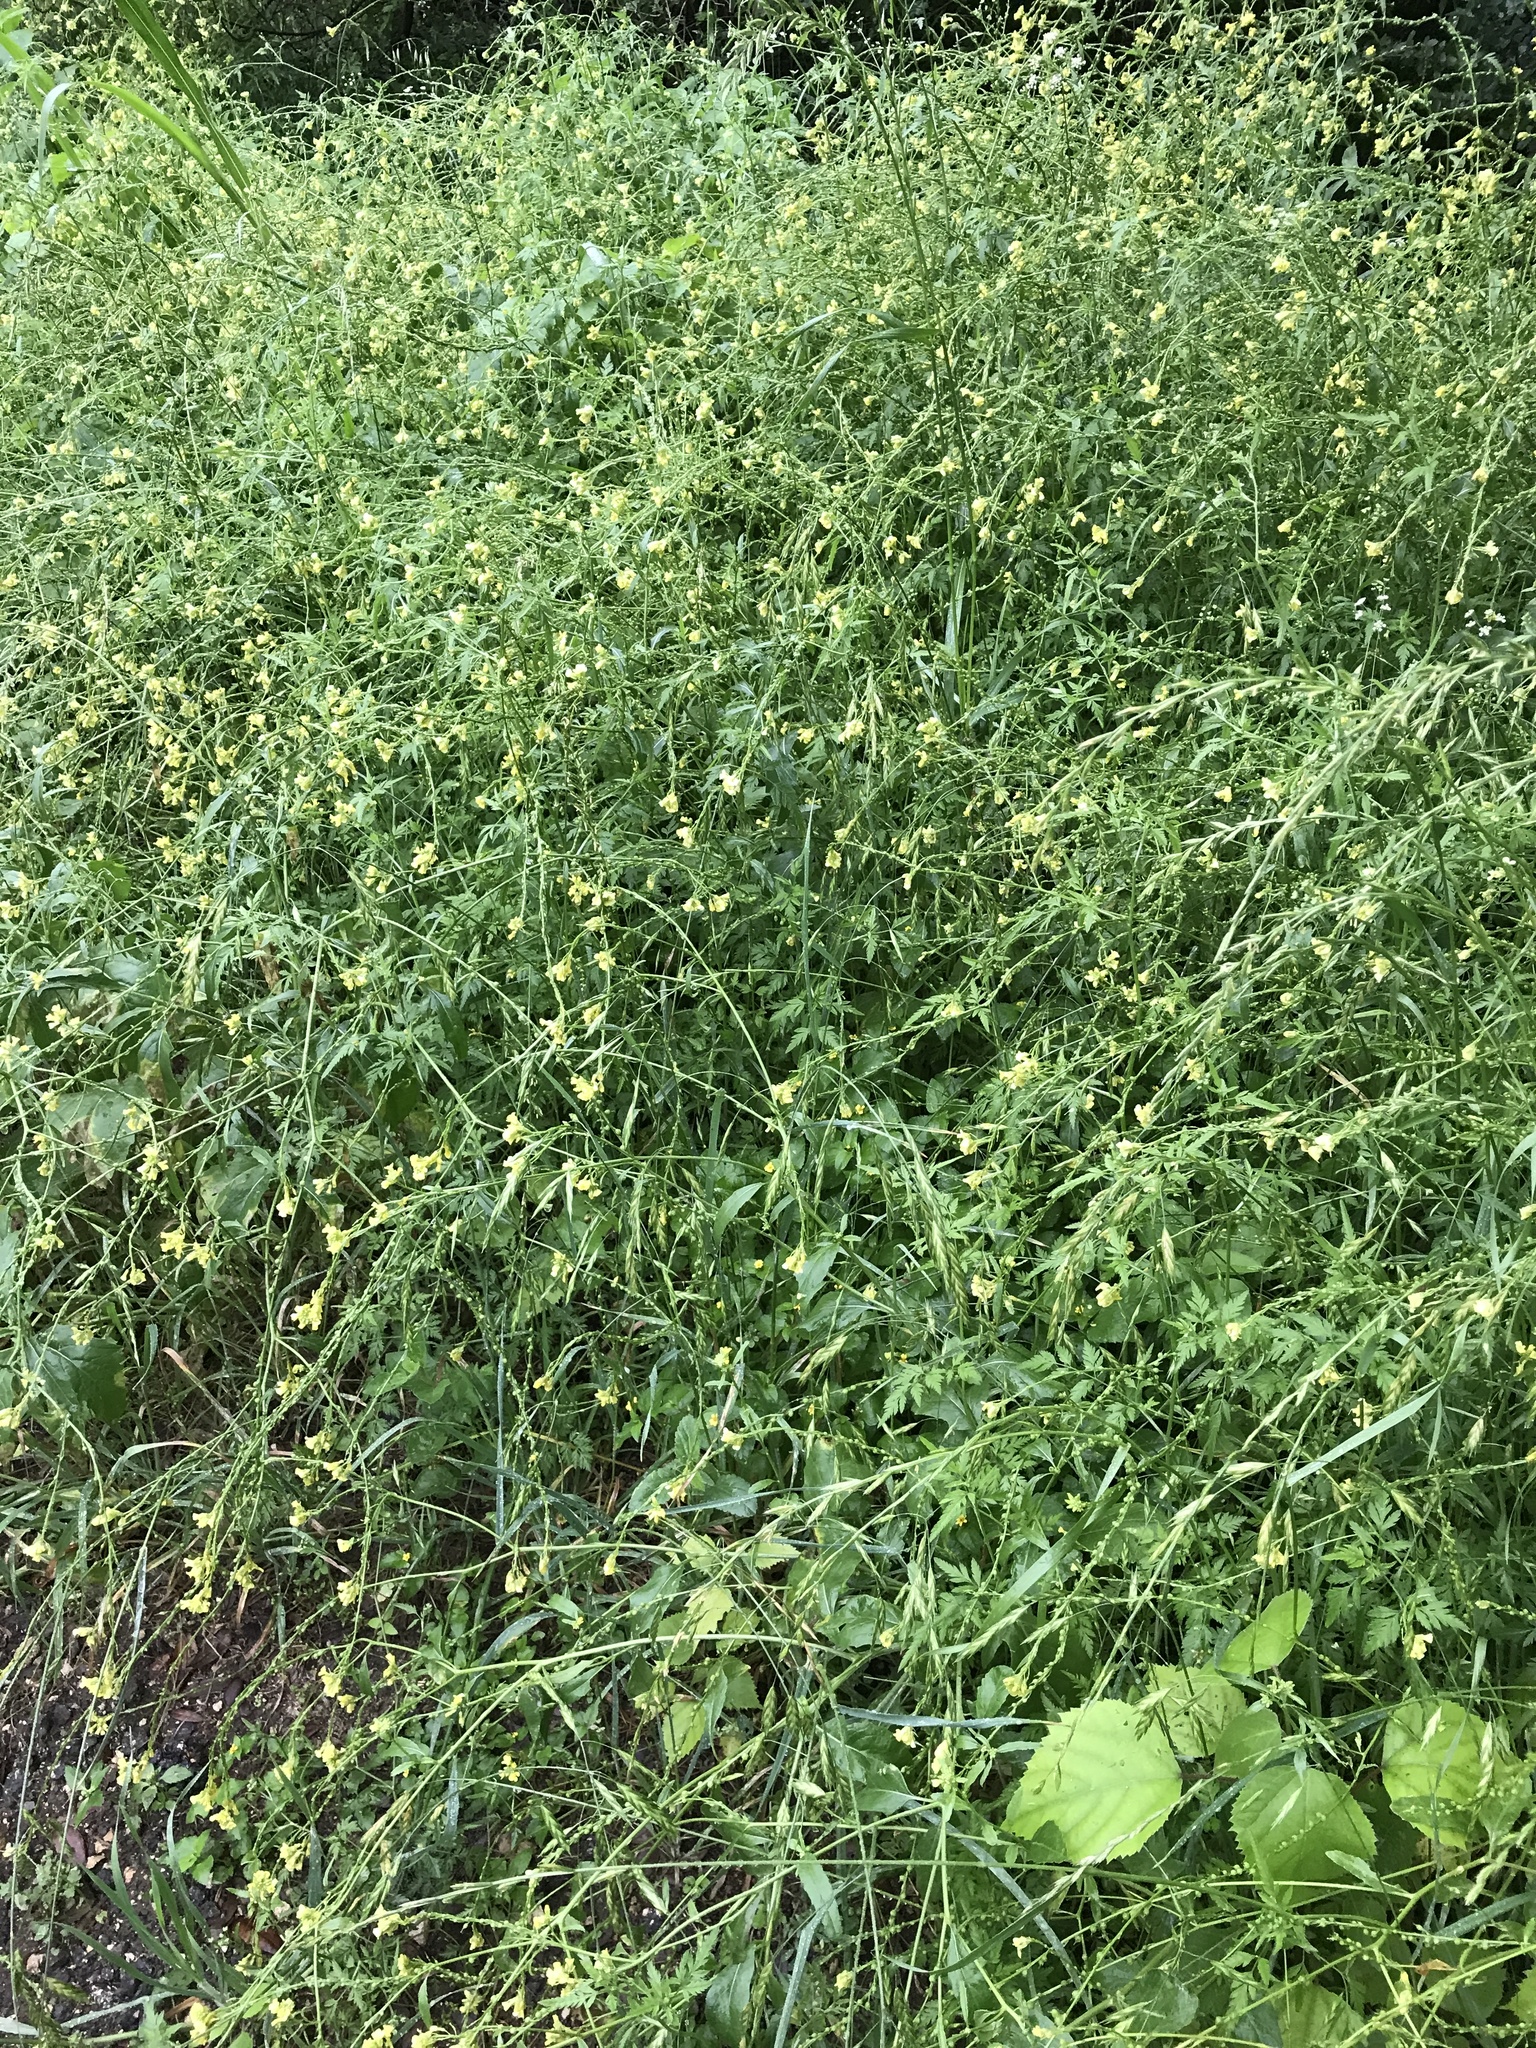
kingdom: Plantae
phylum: Tracheophyta
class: Magnoliopsida
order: Brassicales
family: Brassicaceae
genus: Rapistrum
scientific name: Rapistrum rugosum
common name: Annual bastardcabbage
